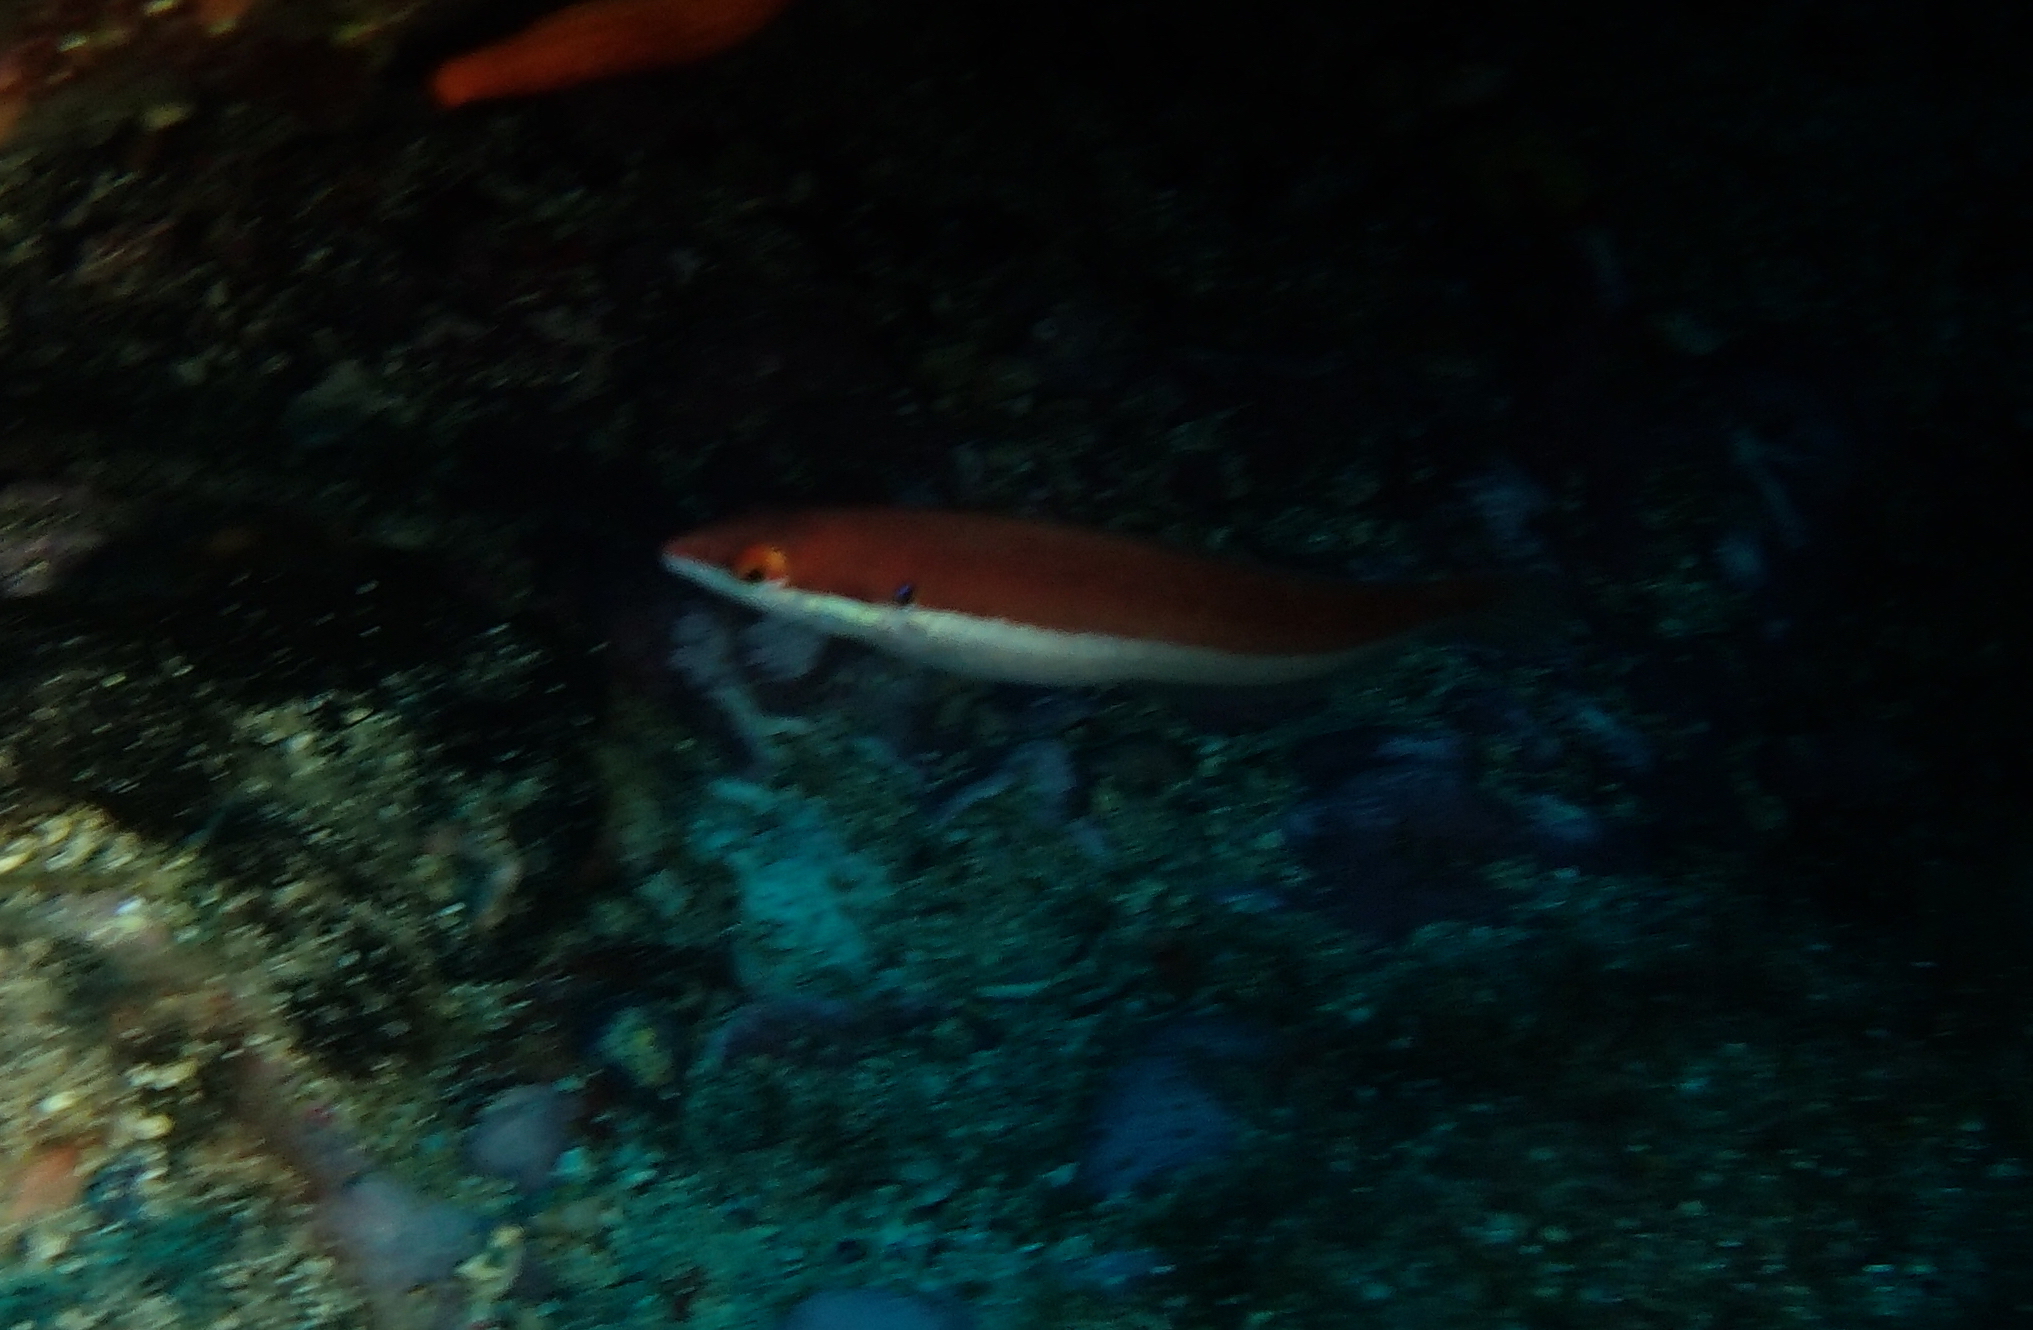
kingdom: Animalia
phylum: Chordata
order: Perciformes
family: Labridae
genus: Coris
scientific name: Coris julis
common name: Rainbow wrasse
